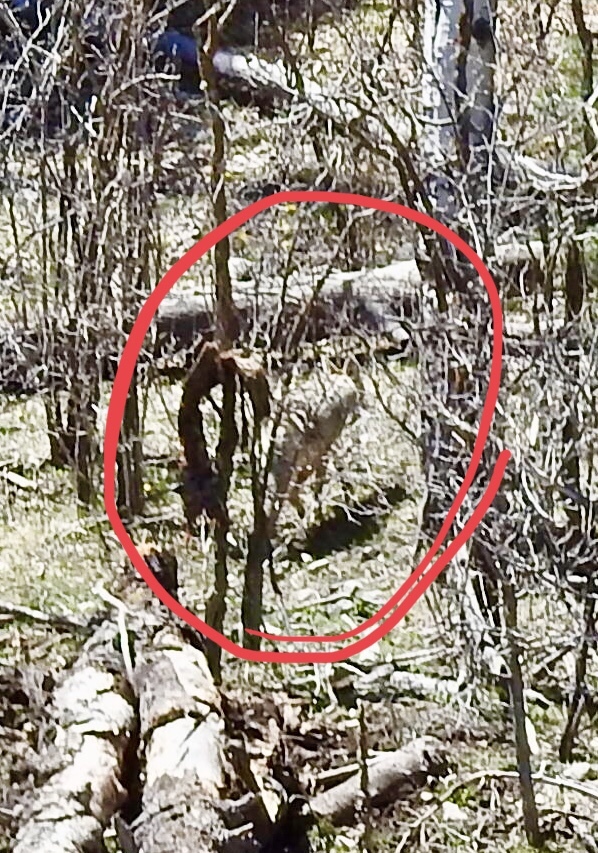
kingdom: Animalia
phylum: Chordata
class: Mammalia
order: Carnivora
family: Canidae
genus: Canis
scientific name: Canis latrans
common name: Coyote
